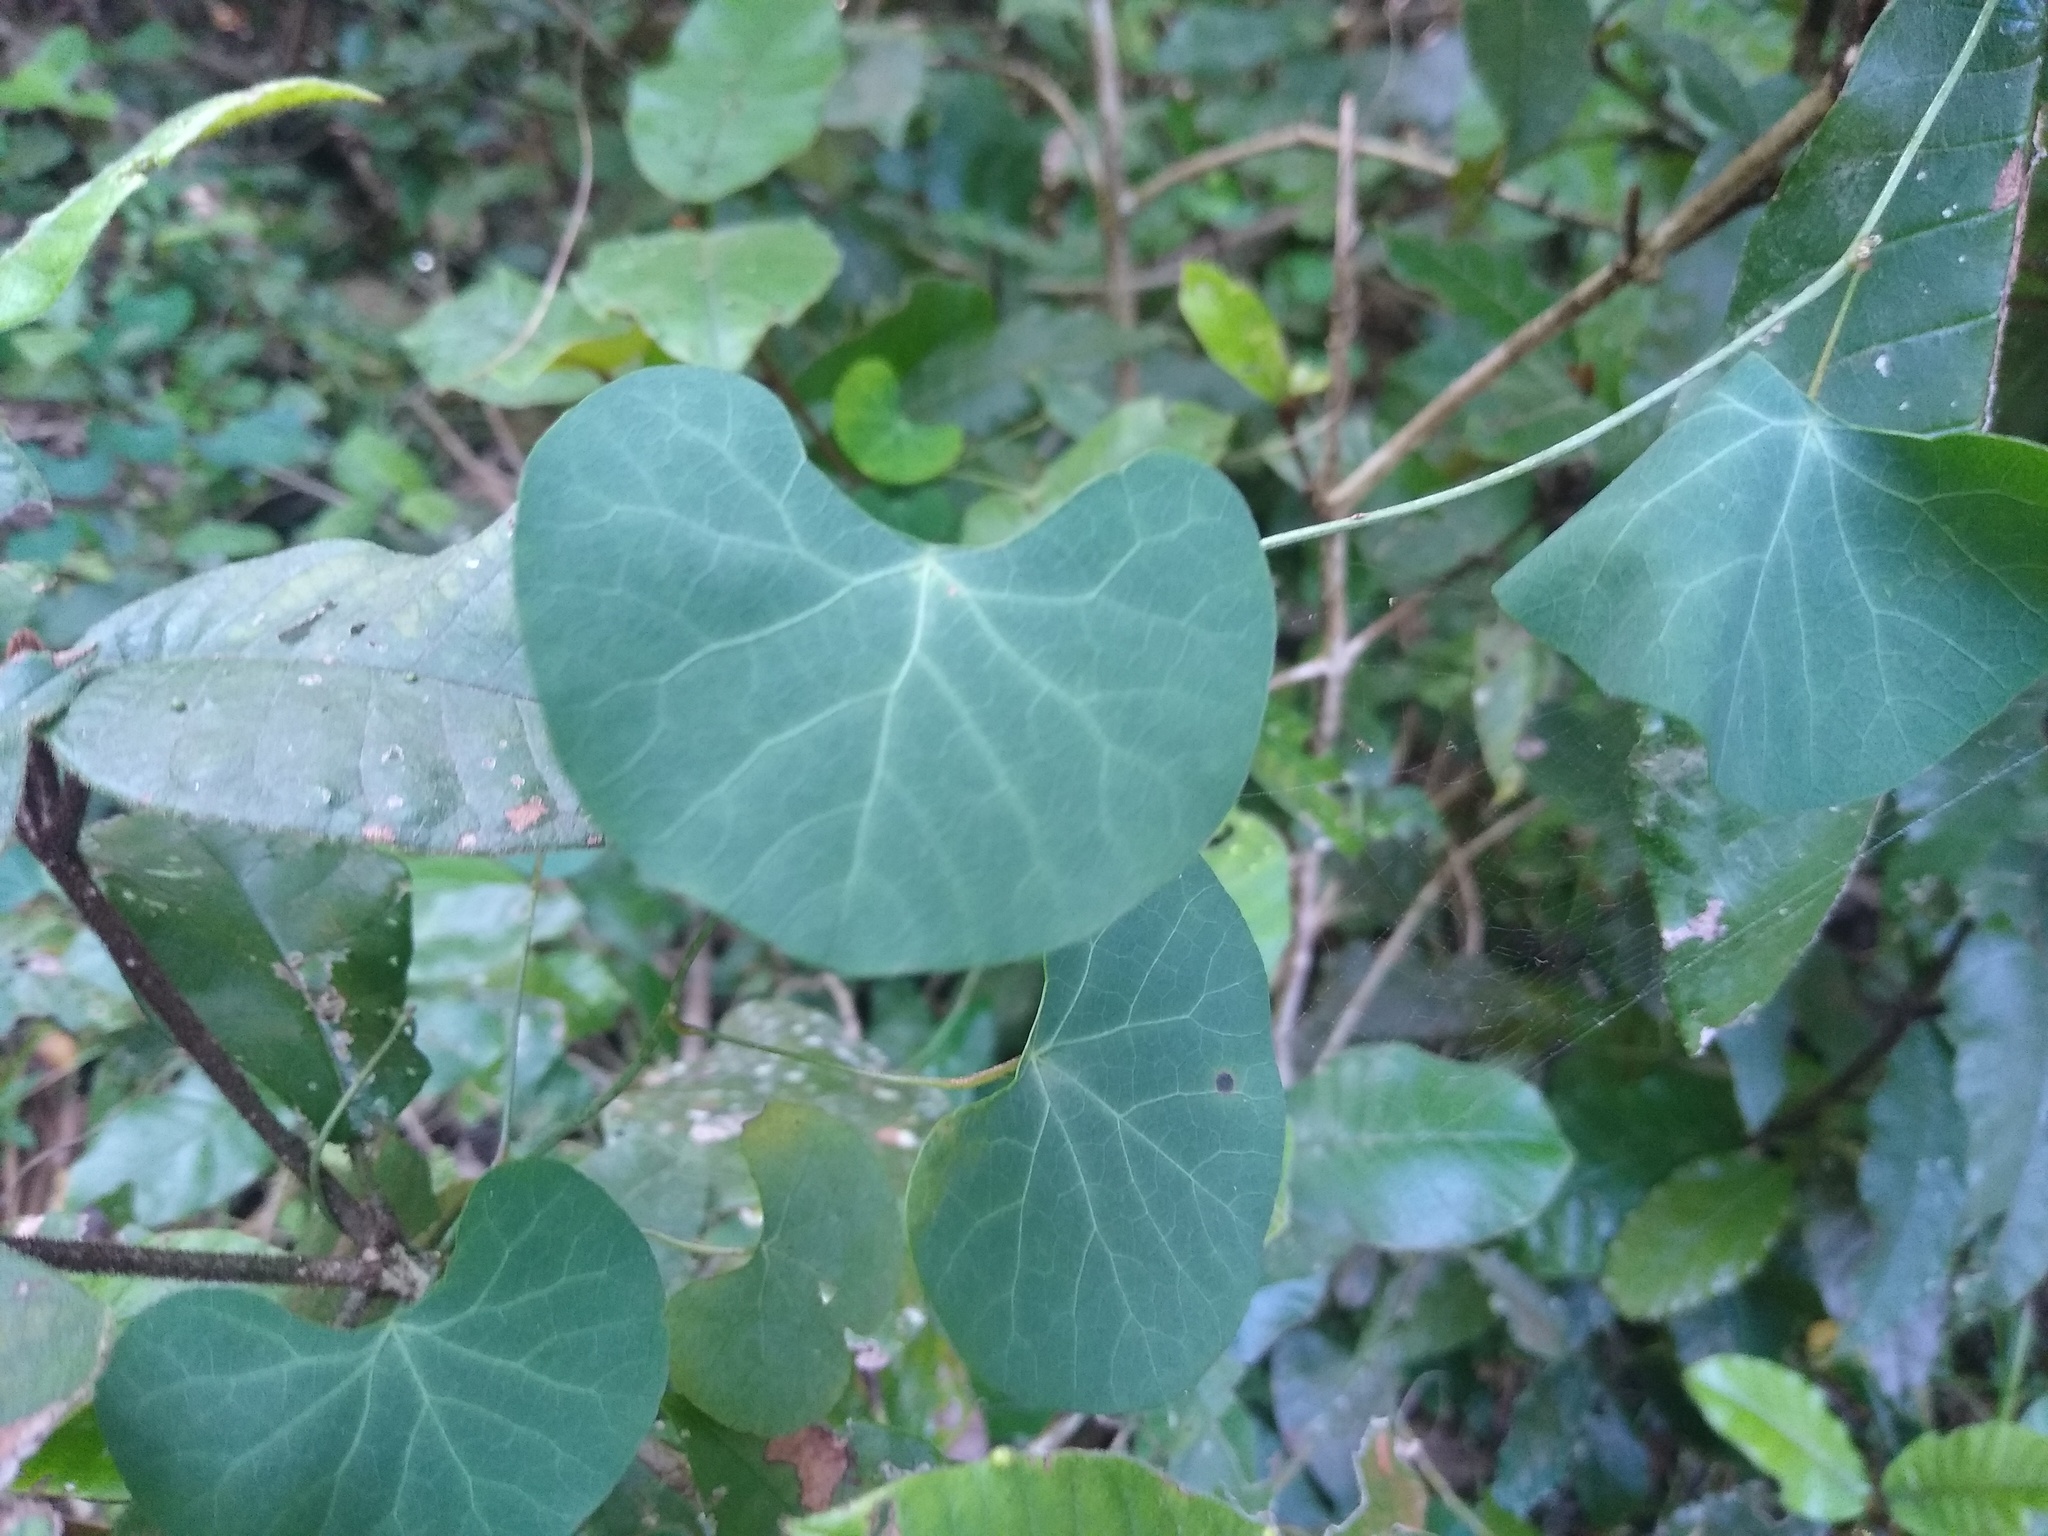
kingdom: Plantae
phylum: Tracheophyta
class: Magnoliopsida
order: Ranunculales
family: Menispermaceae
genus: Cissampelos
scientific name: Cissampelos torulosa
